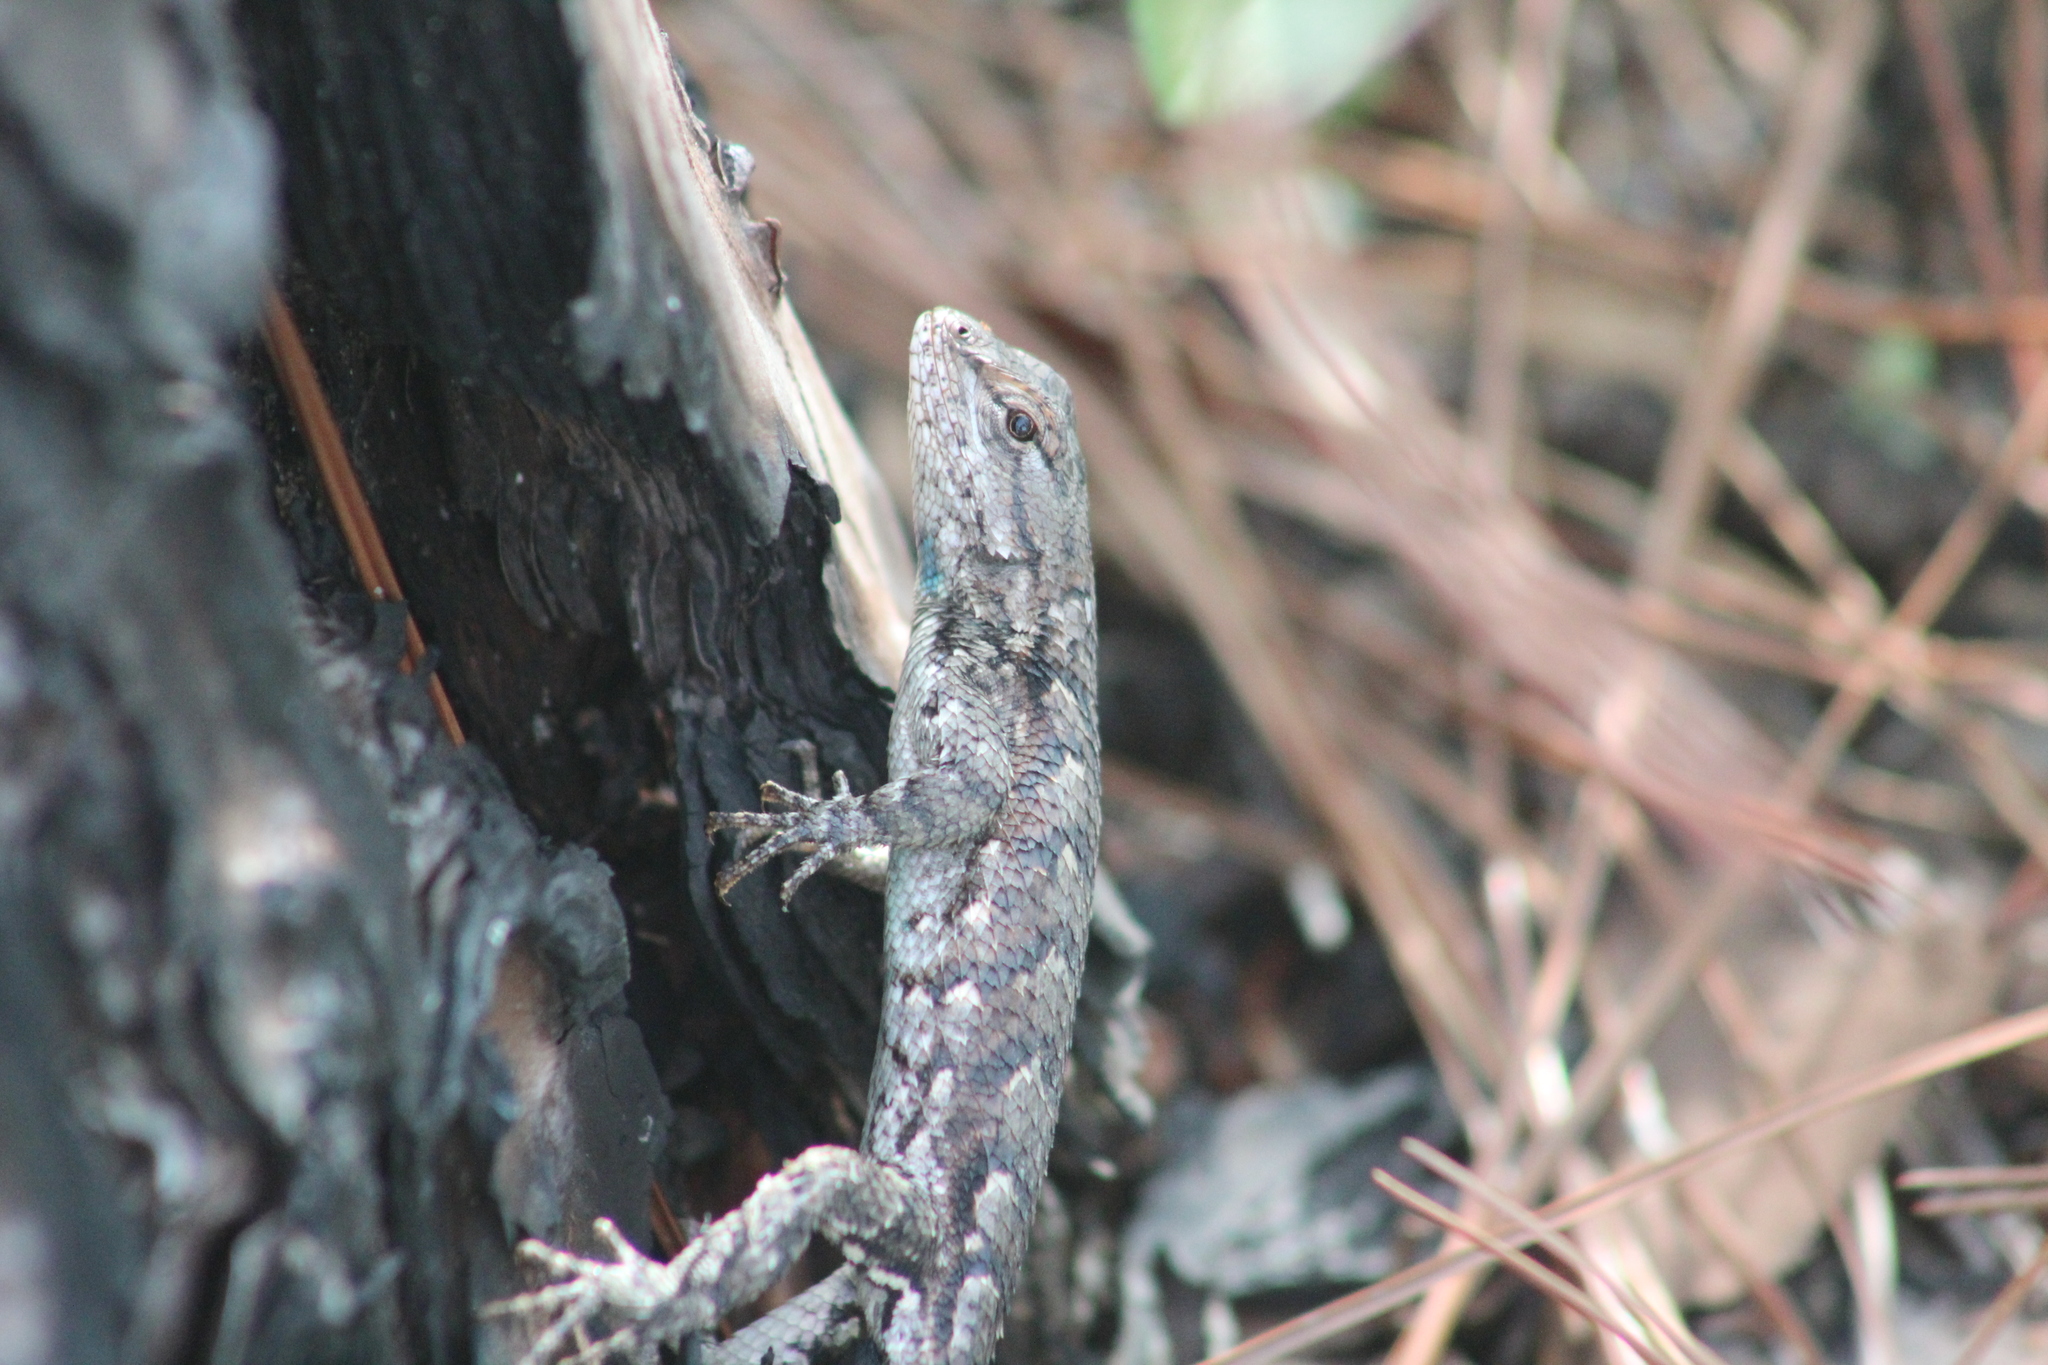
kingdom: Animalia
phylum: Chordata
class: Squamata
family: Phrynosomatidae
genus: Sceloporus
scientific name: Sceloporus undulatus
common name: Eastern fence lizard
